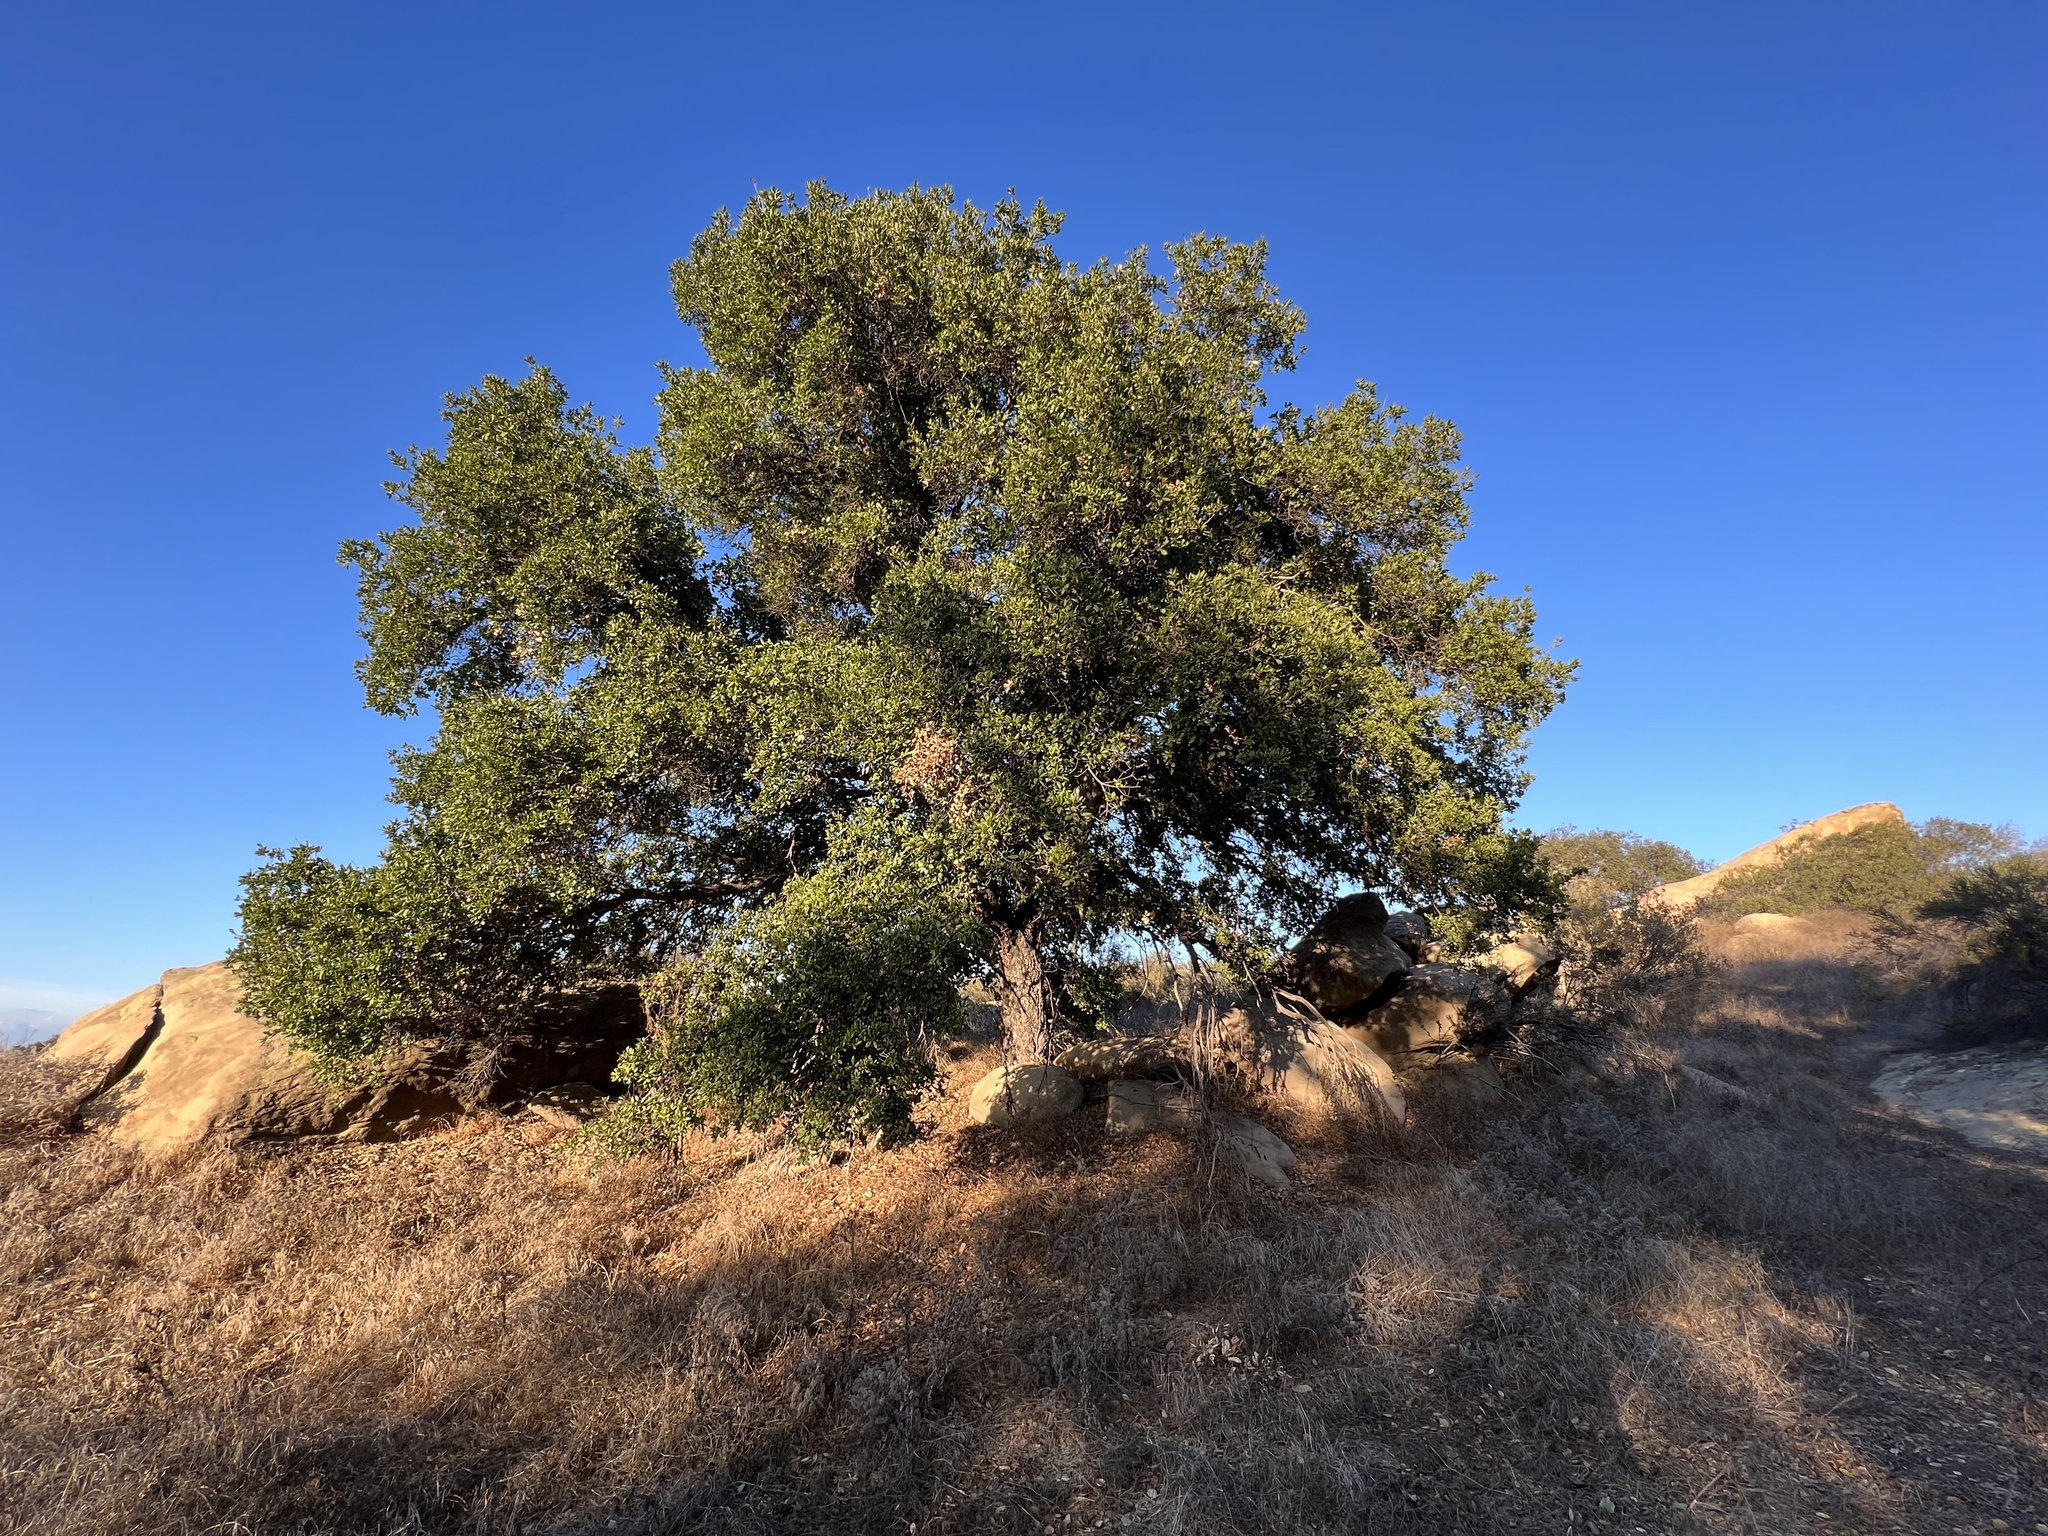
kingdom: Plantae
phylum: Tracheophyta
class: Magnoliopsida
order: Fagales
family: Fagaceae
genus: Quercus
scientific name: Quercus agrifolia
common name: California live oak
